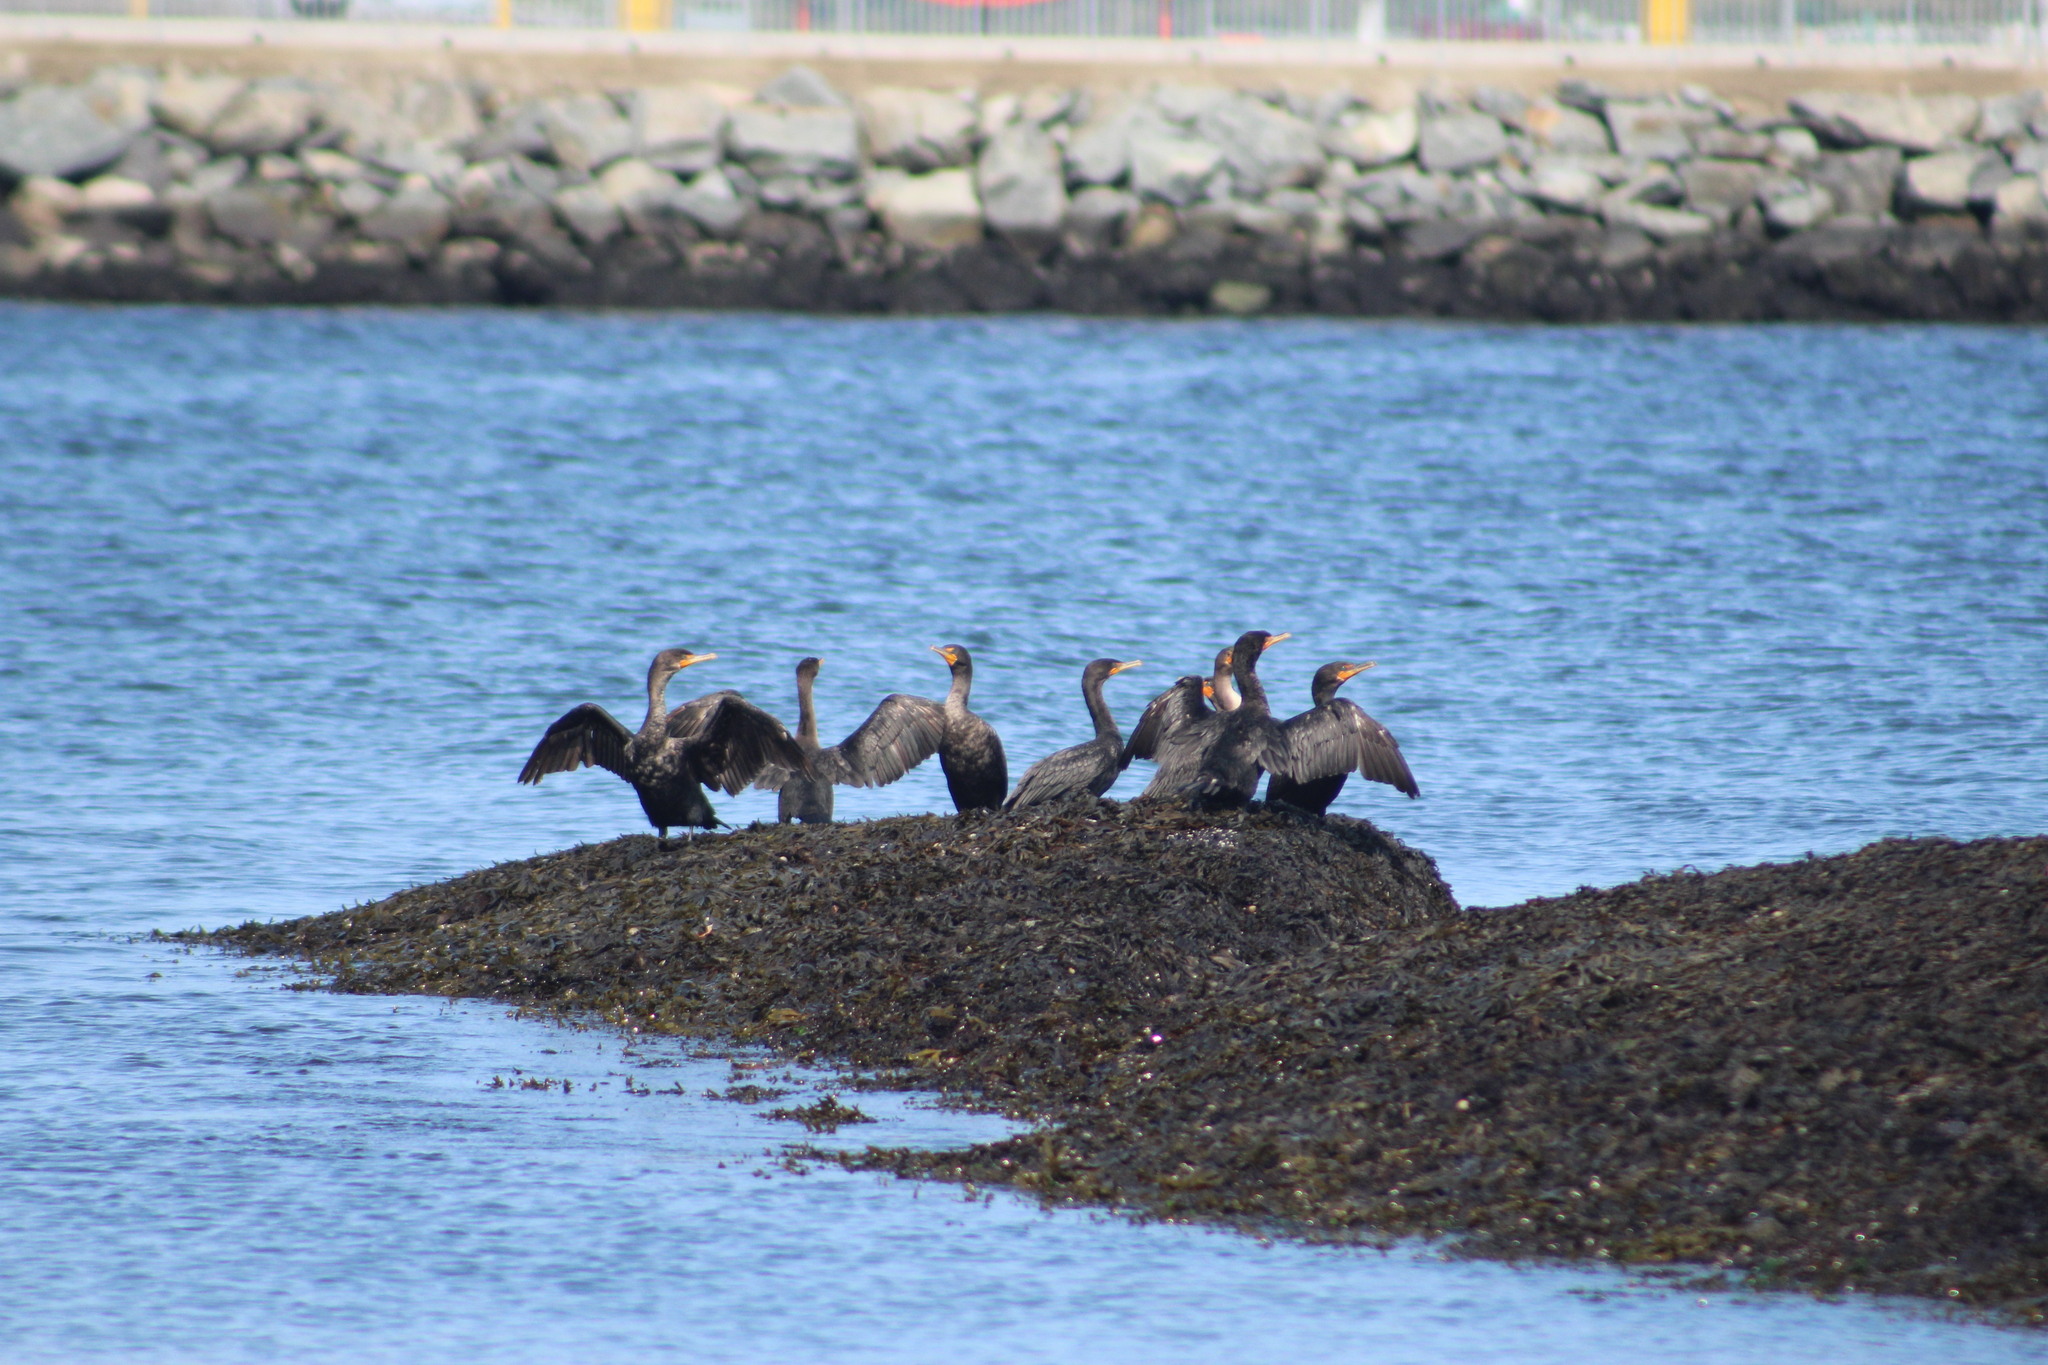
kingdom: Animalia
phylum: Chordata
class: Aves
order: Suliformes
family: Phalacrocoracidae
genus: Phalacrocorax
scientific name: Phalacrocorax auritus
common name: Double-crested cormorant
